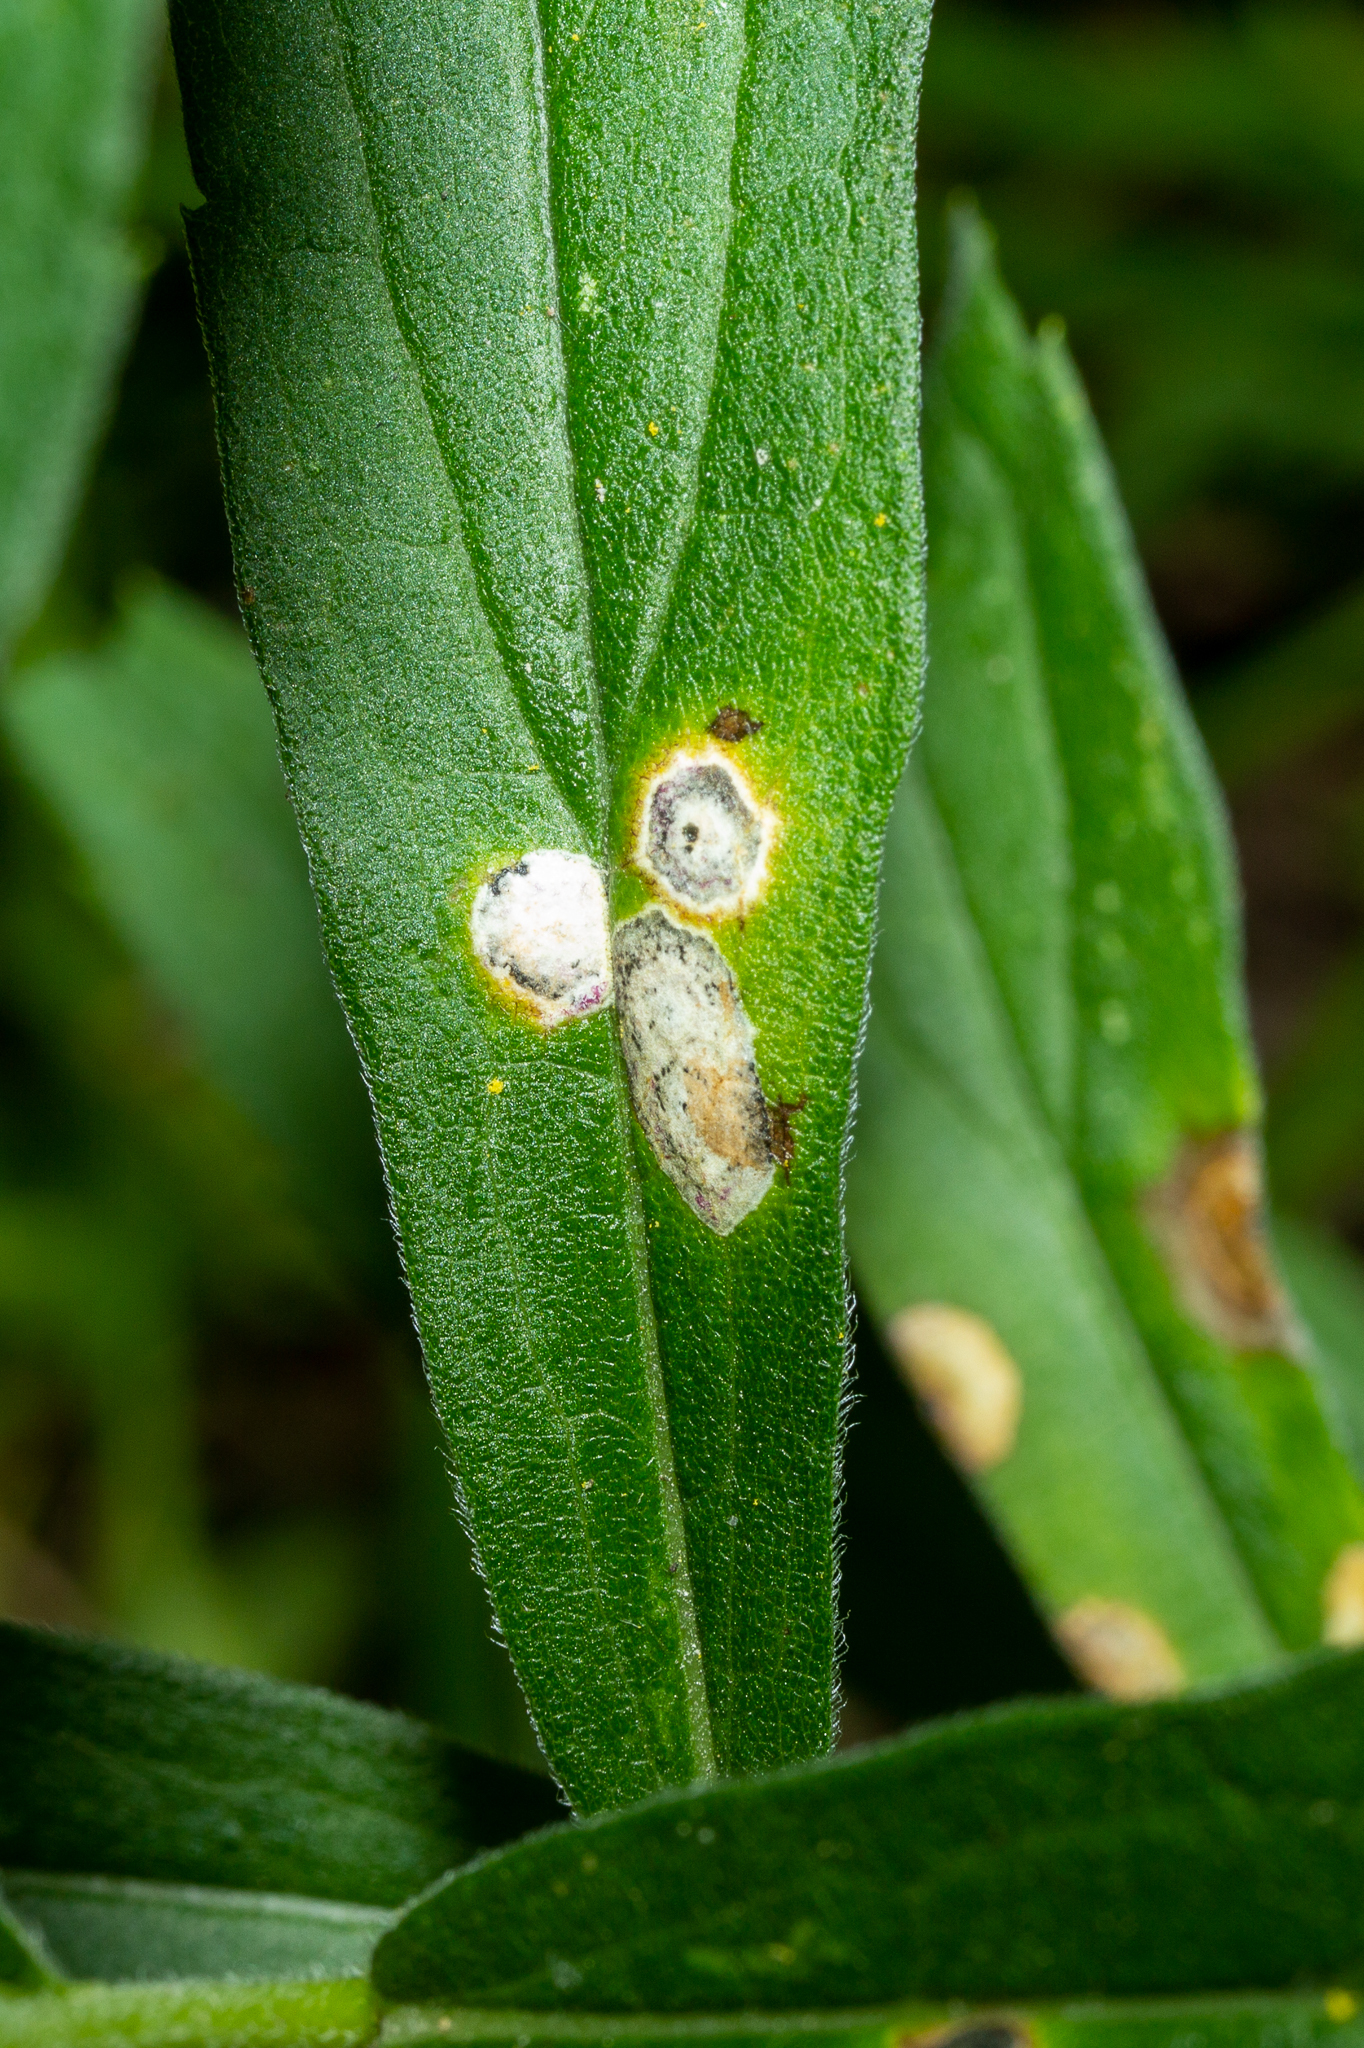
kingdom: Animalia
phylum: Arthropoda
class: Insecta
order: Diptera
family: Cecidomyiidae
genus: Asteromyia
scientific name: Asteromyia carbonifera
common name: Carbonifera goldenrod gall midge
